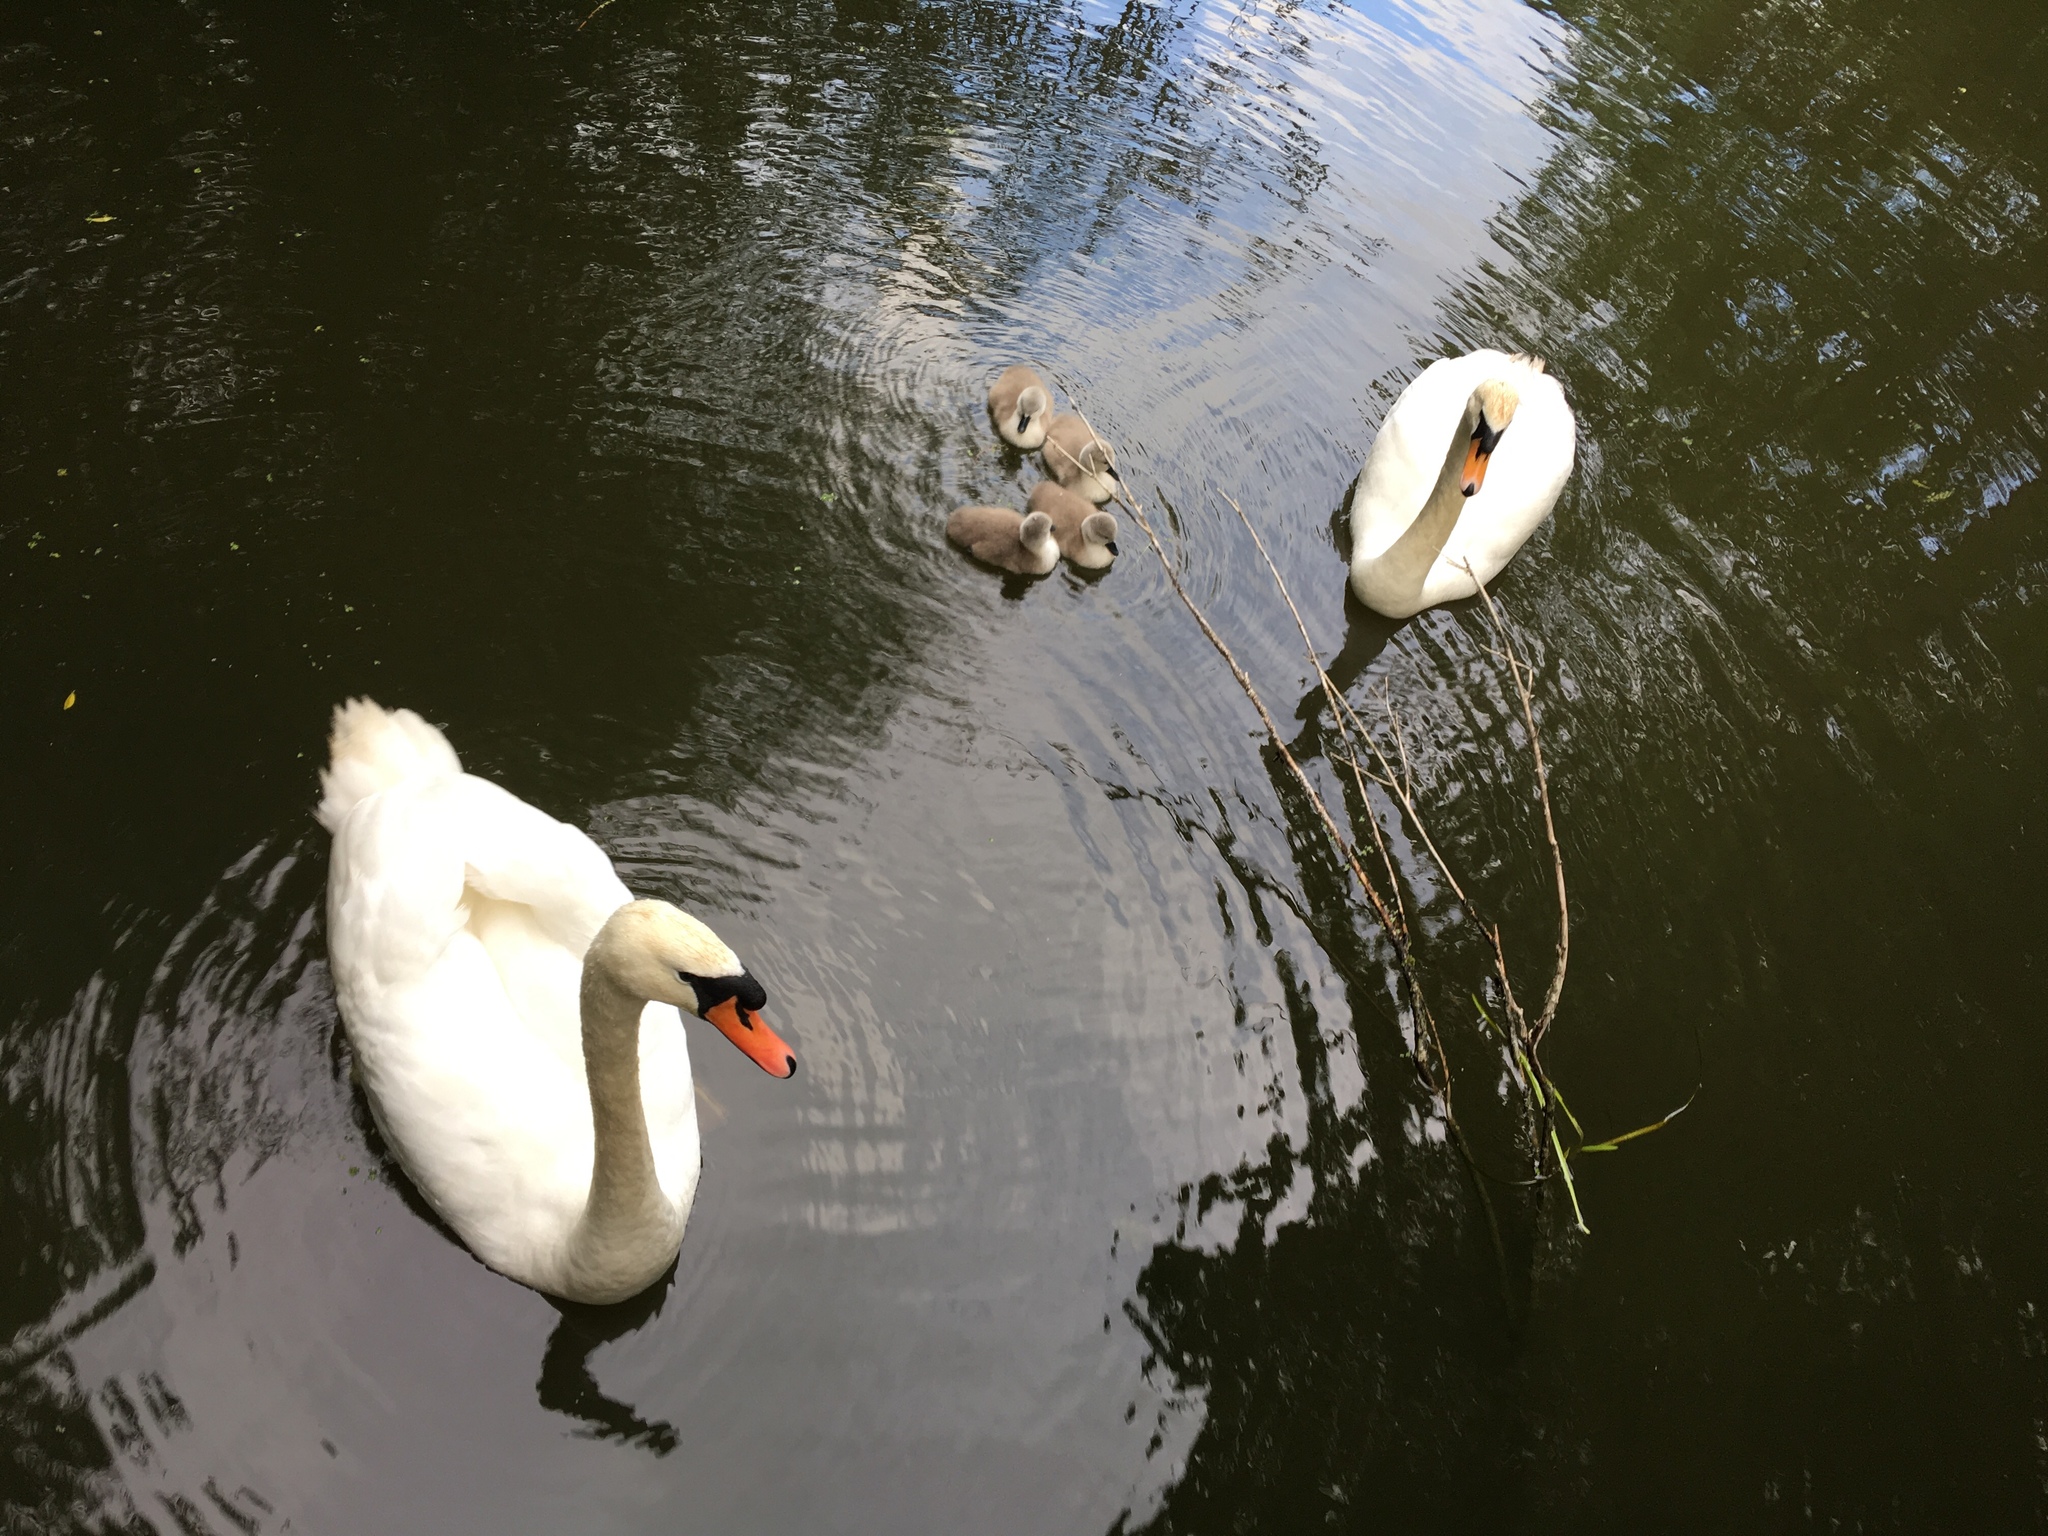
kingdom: Animalia
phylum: Chordata
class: Aves
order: Anseriformes
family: Anatidae
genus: Cygnus
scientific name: Cygnus olor
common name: Mute swan
